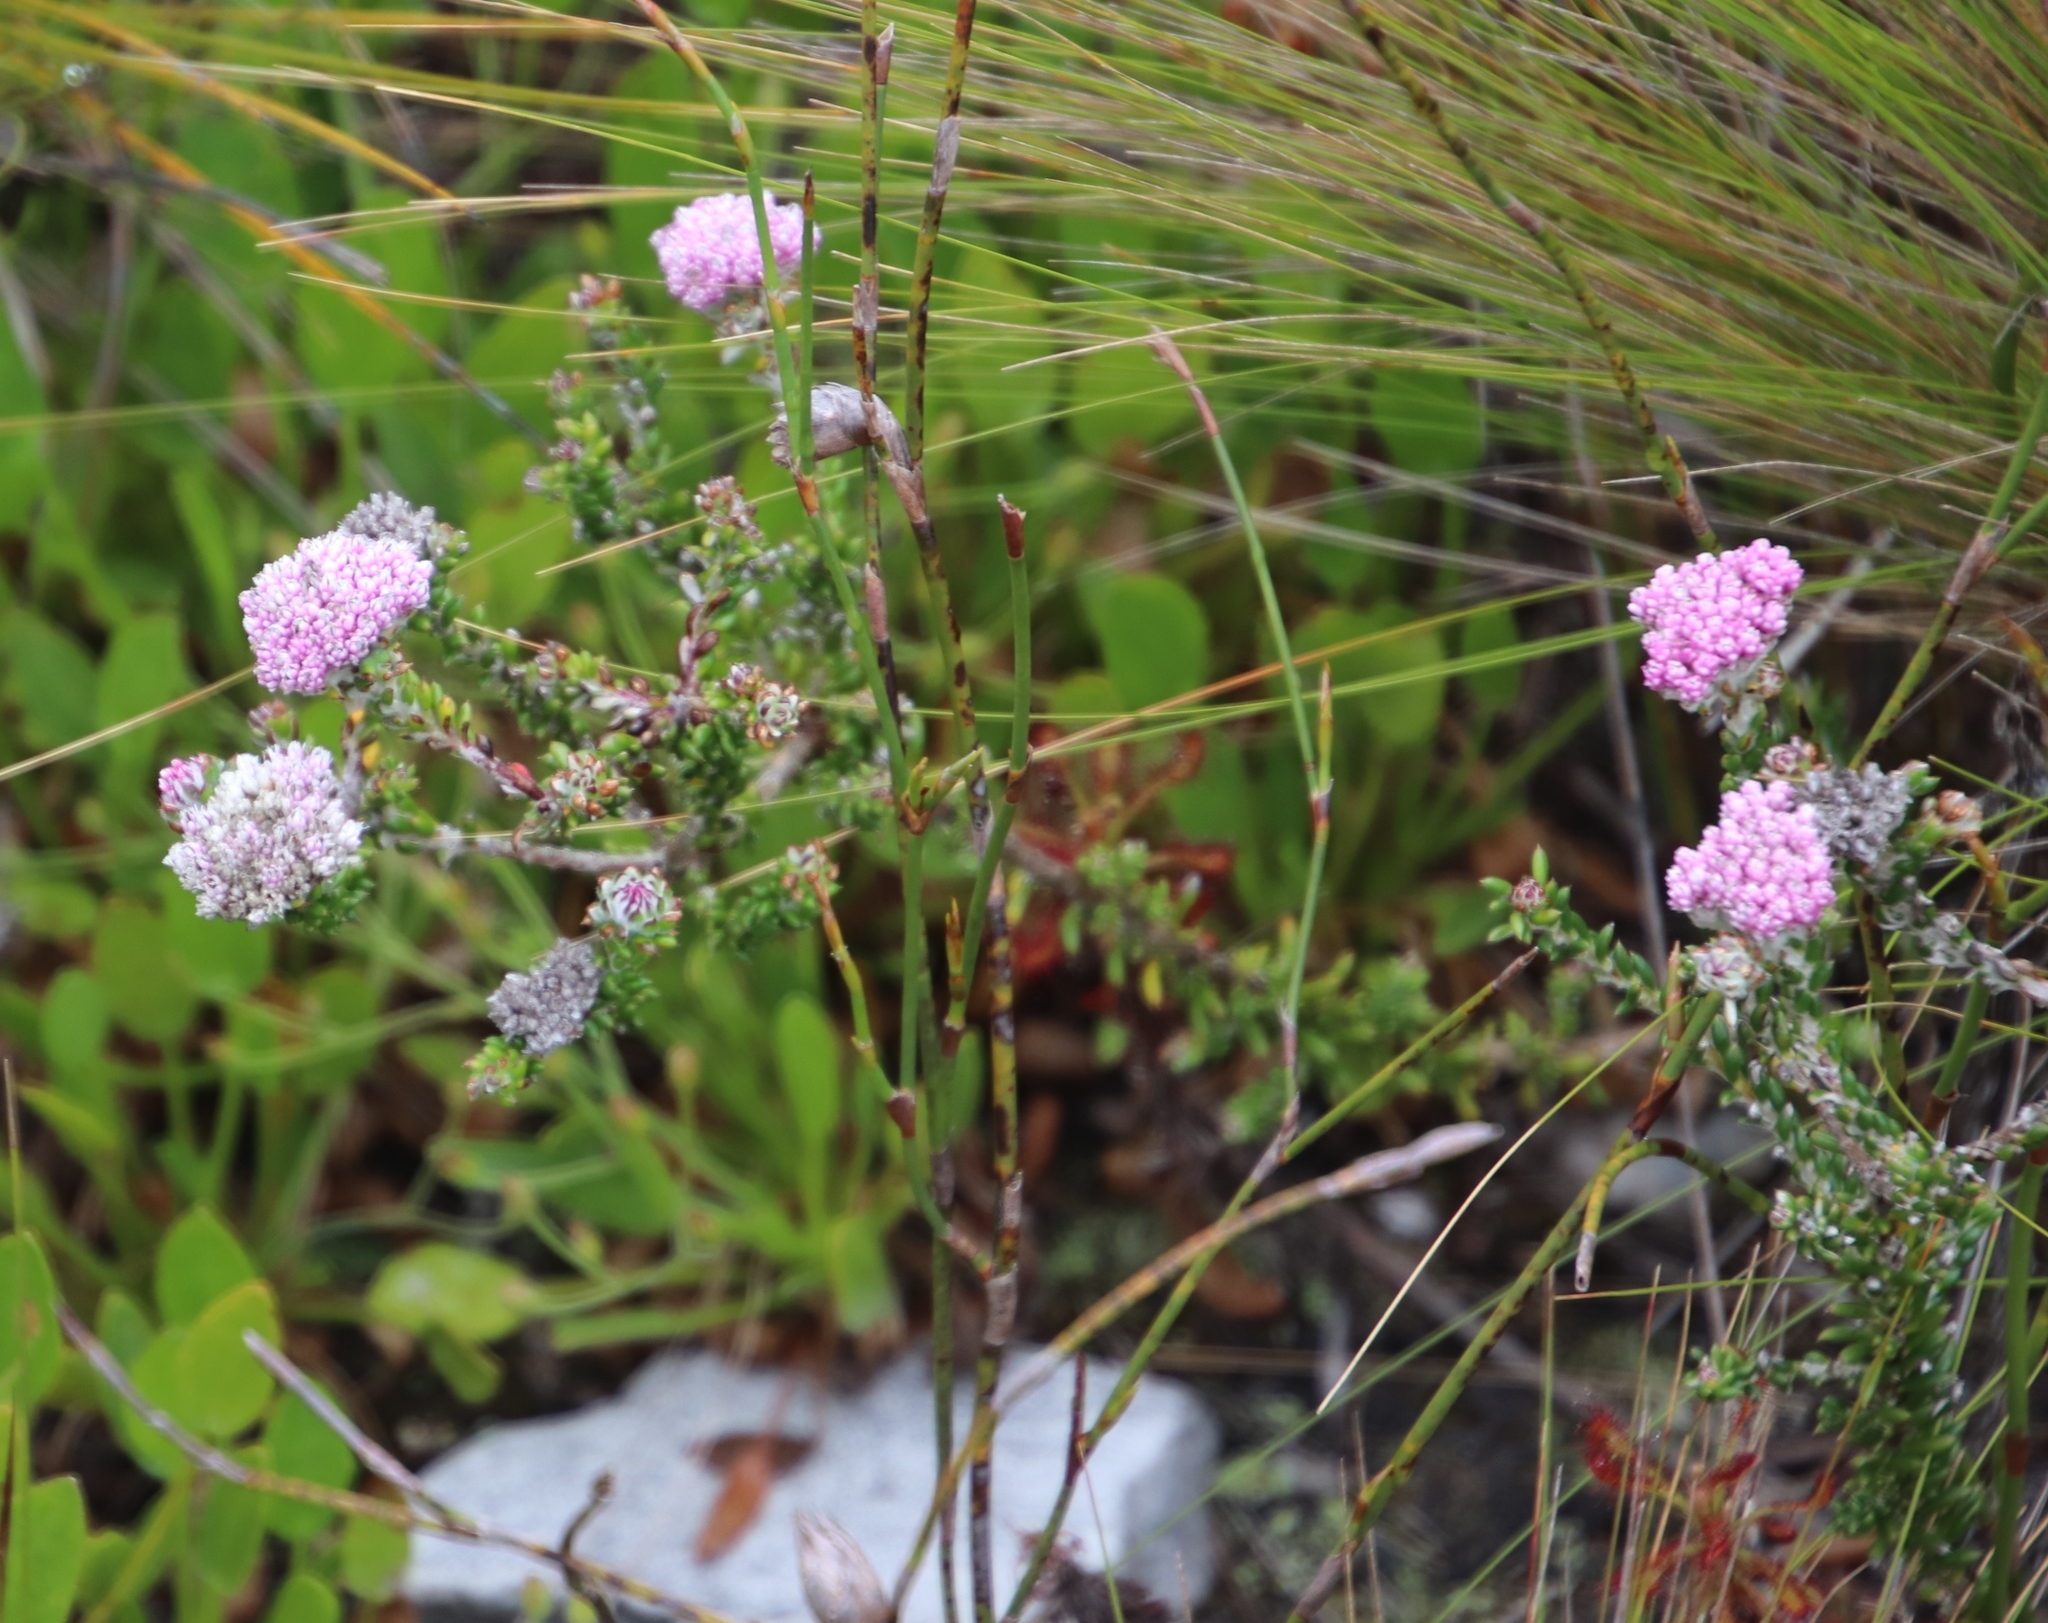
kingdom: Plantae
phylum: Tracheophyta
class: Magnoliopsida
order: Asterales
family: Asteraceae
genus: Metalasia
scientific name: Metalasia cymbifolia
